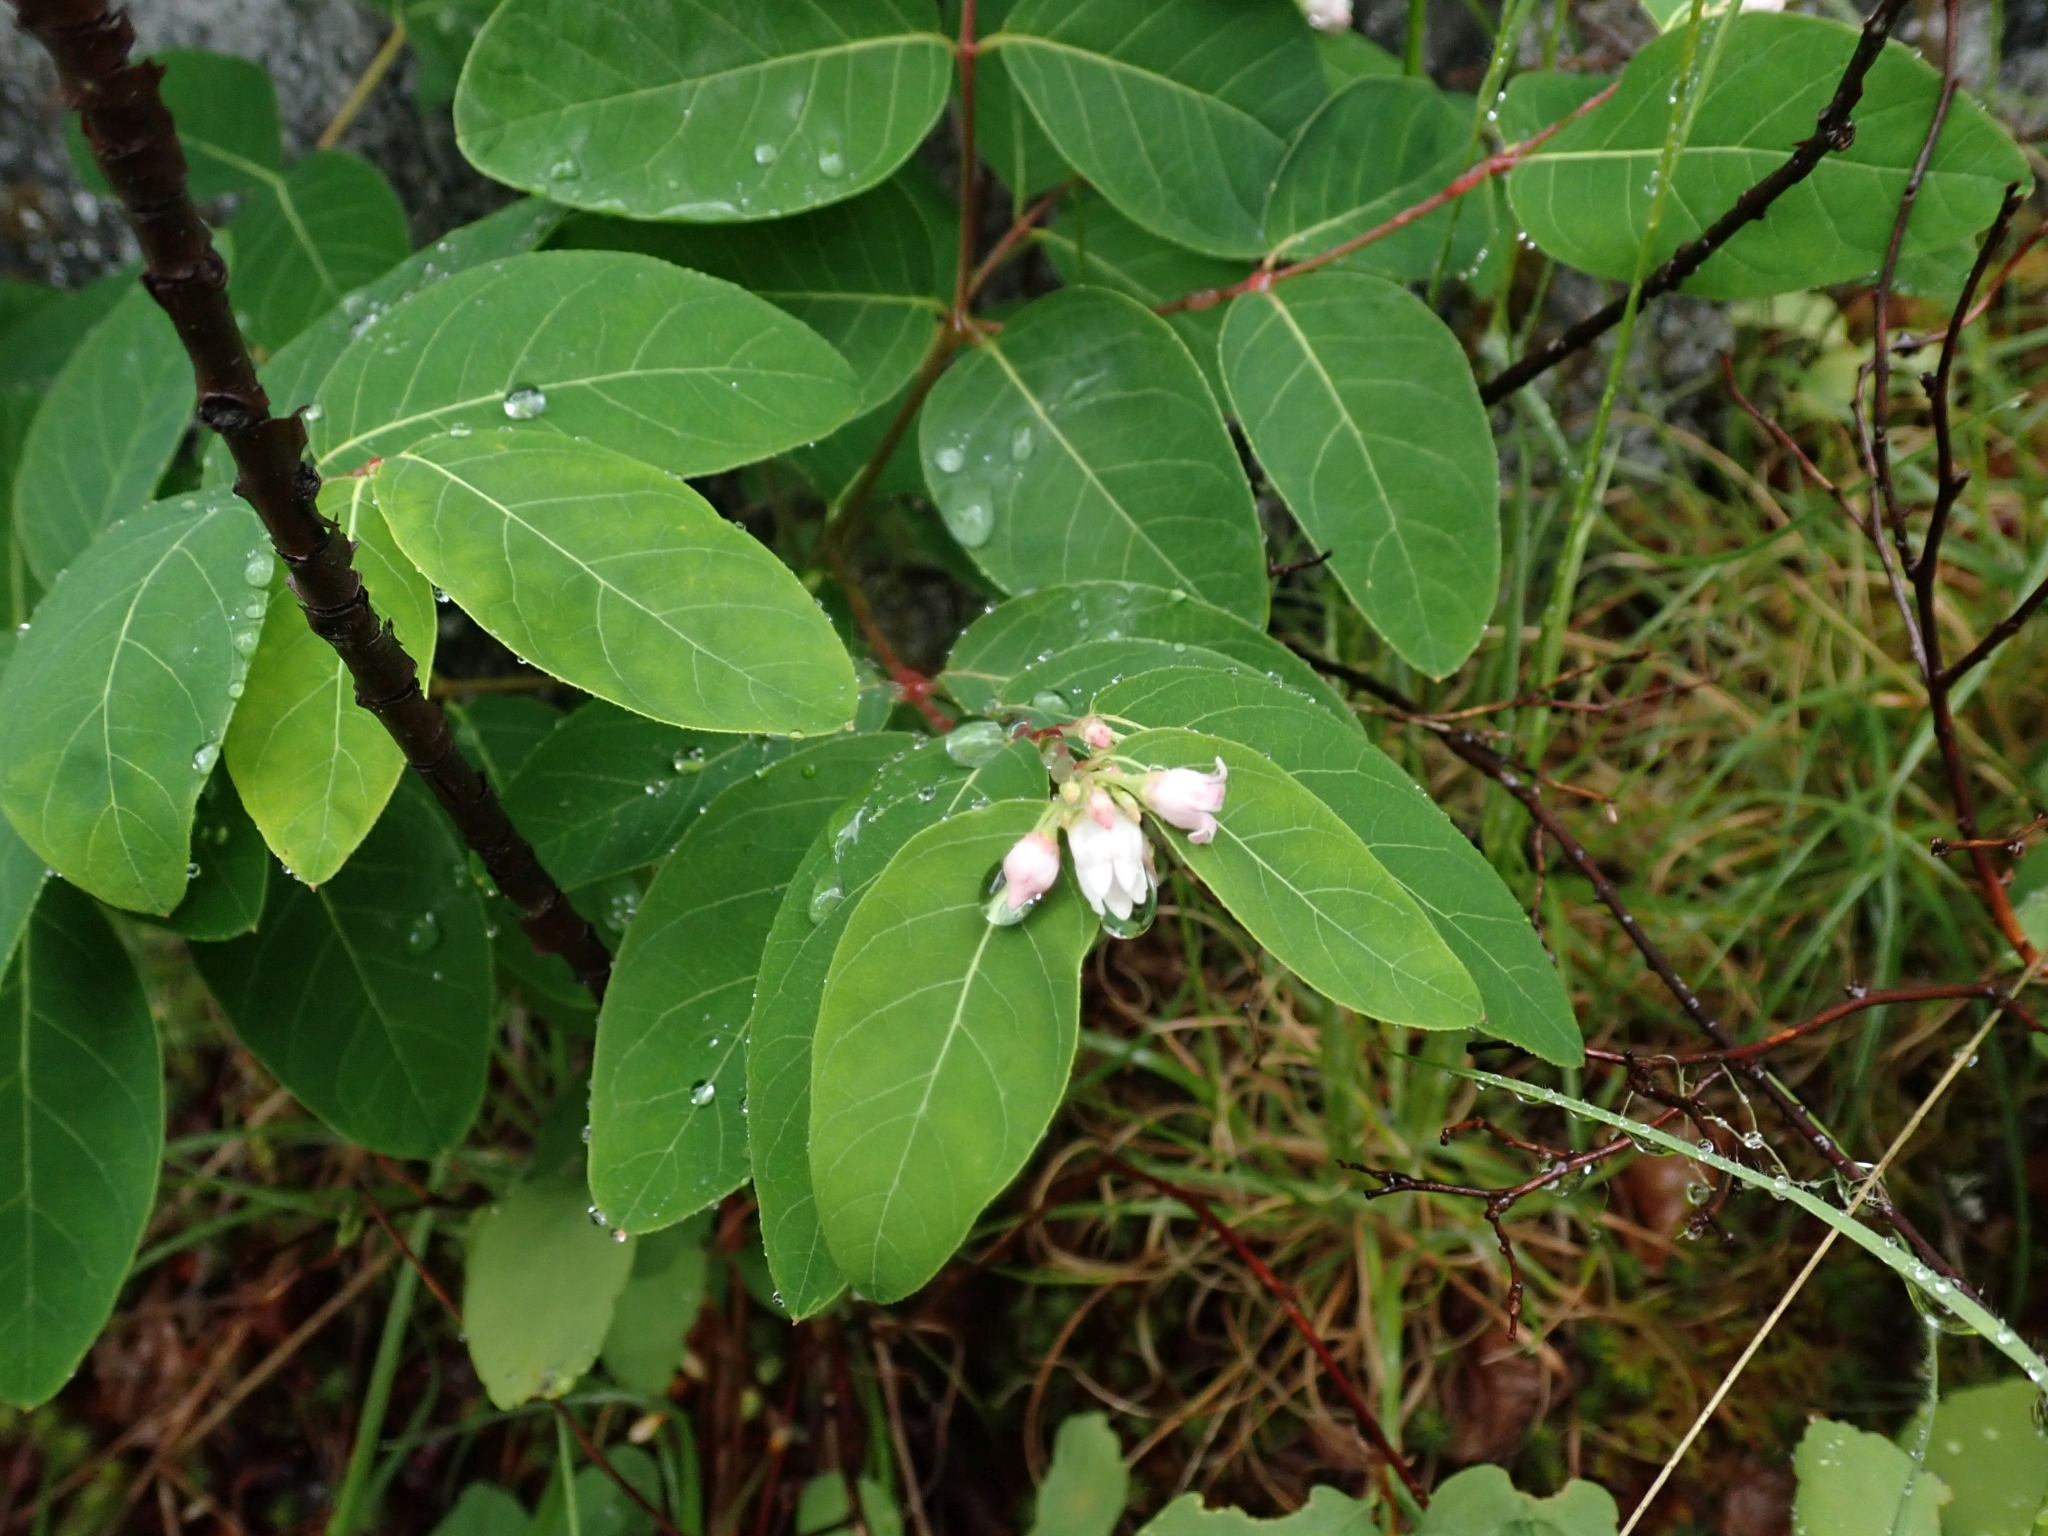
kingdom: Plantae
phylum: Tracheophyta
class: Magnoliopsida
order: Gentianales
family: Apocynaceae
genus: Apocynum
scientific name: Apocynum androsaemifolium
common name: Spreading dogbane
